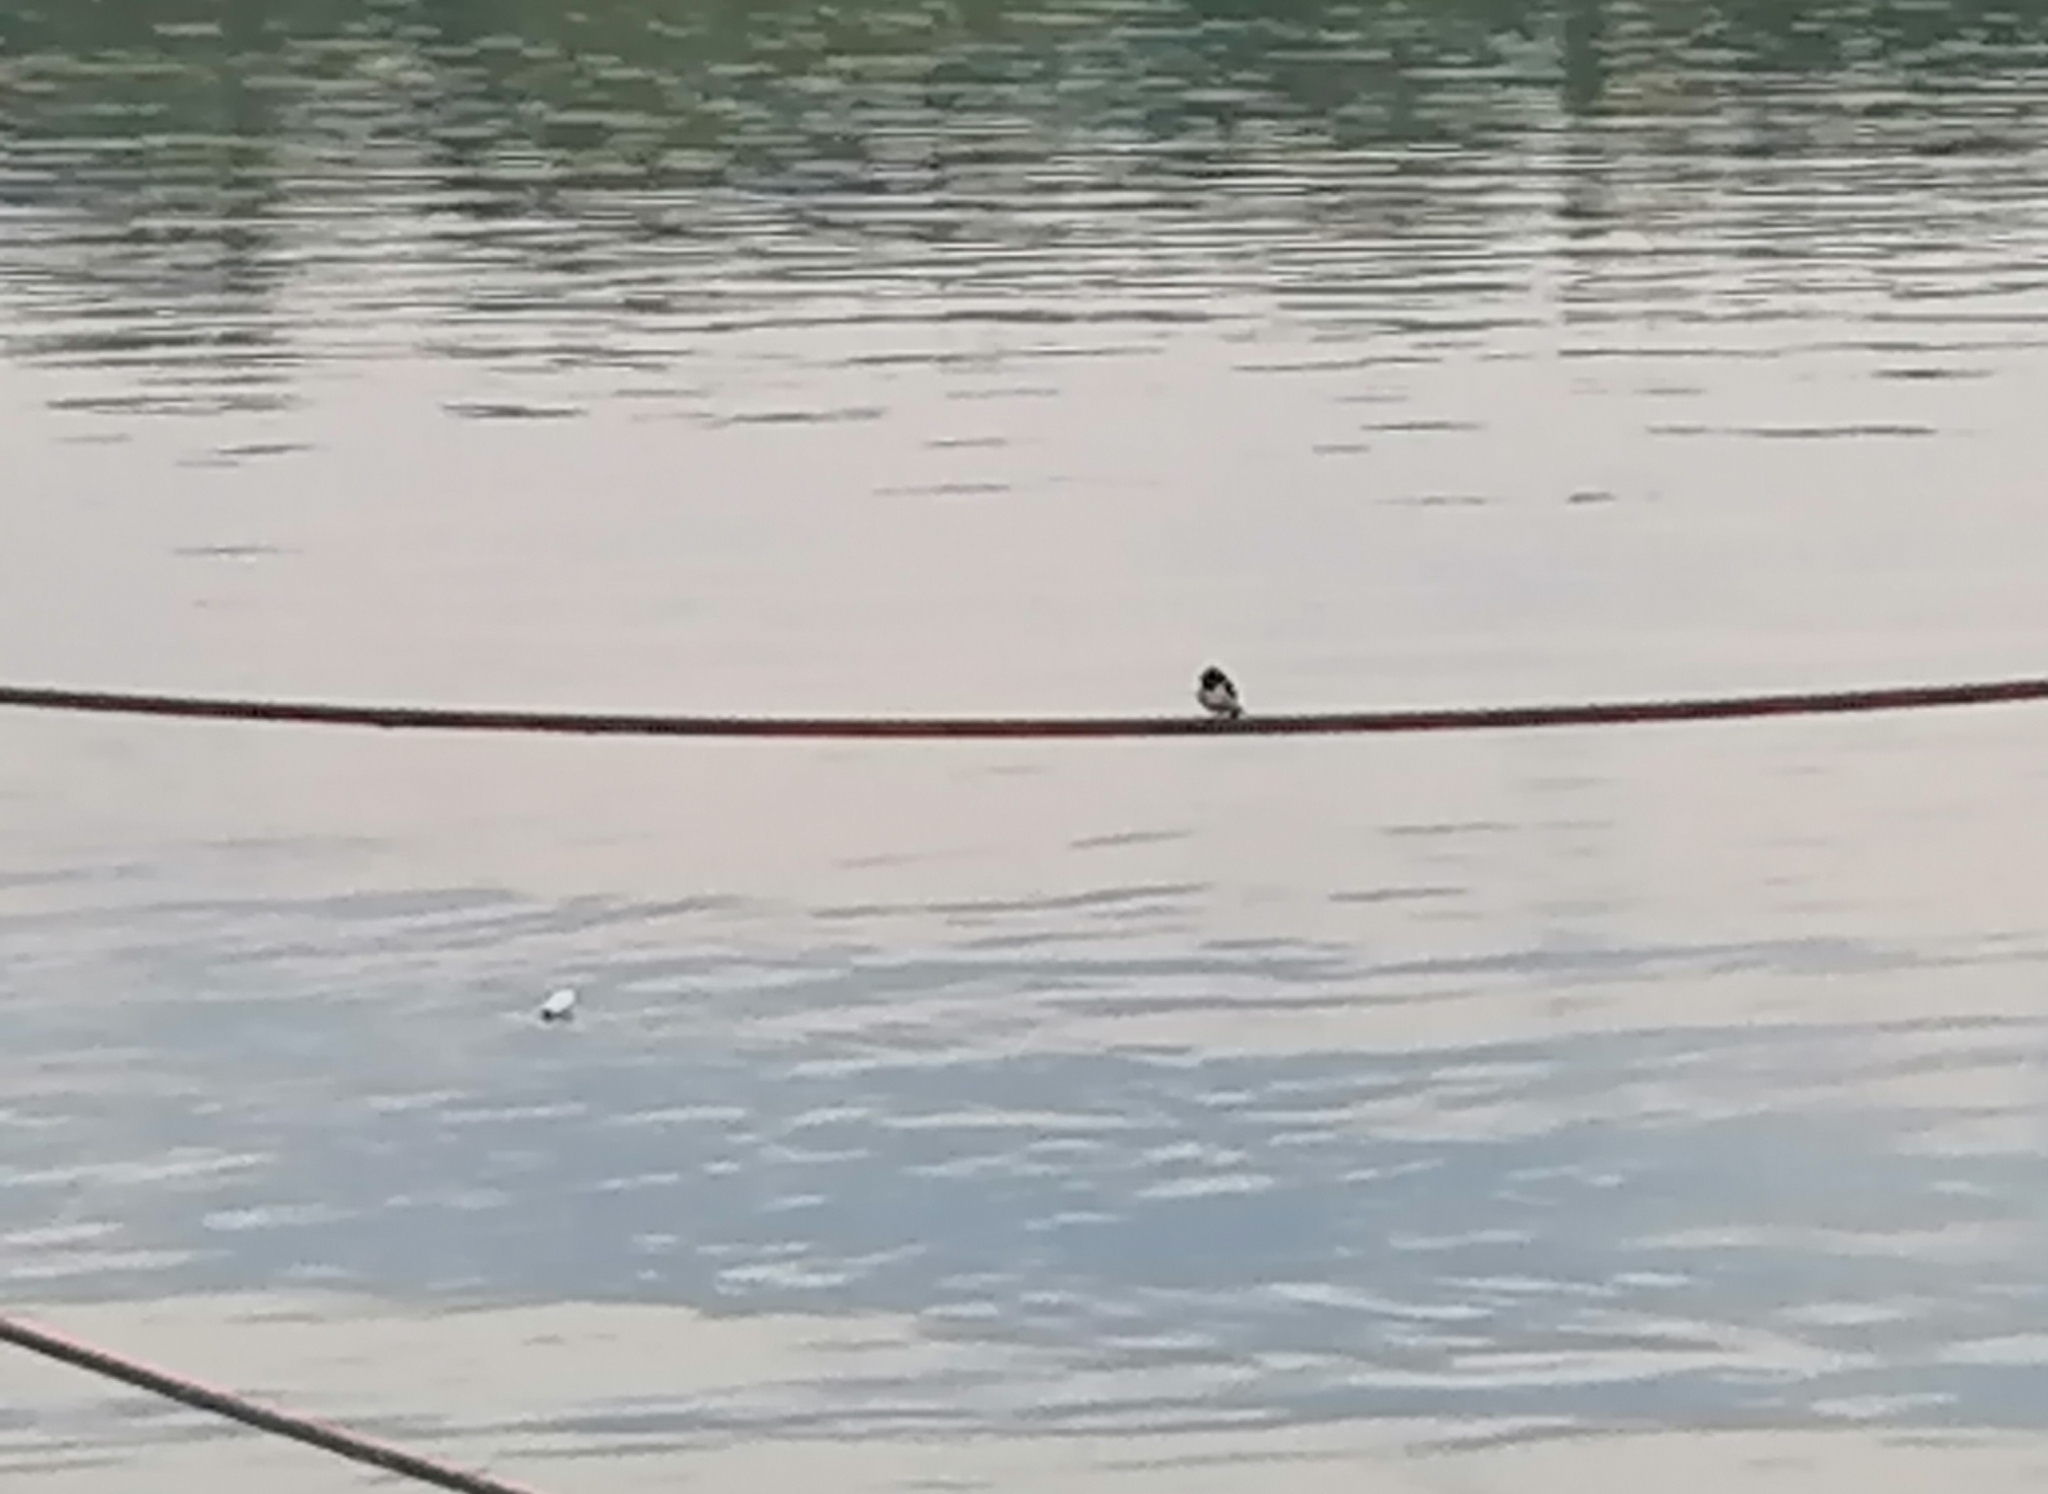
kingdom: Animalia
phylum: Chordata
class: Aves
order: Passeriformes
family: Hirundinidae
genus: Hirundo
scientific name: Hirundo rustica
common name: Barn swallow
